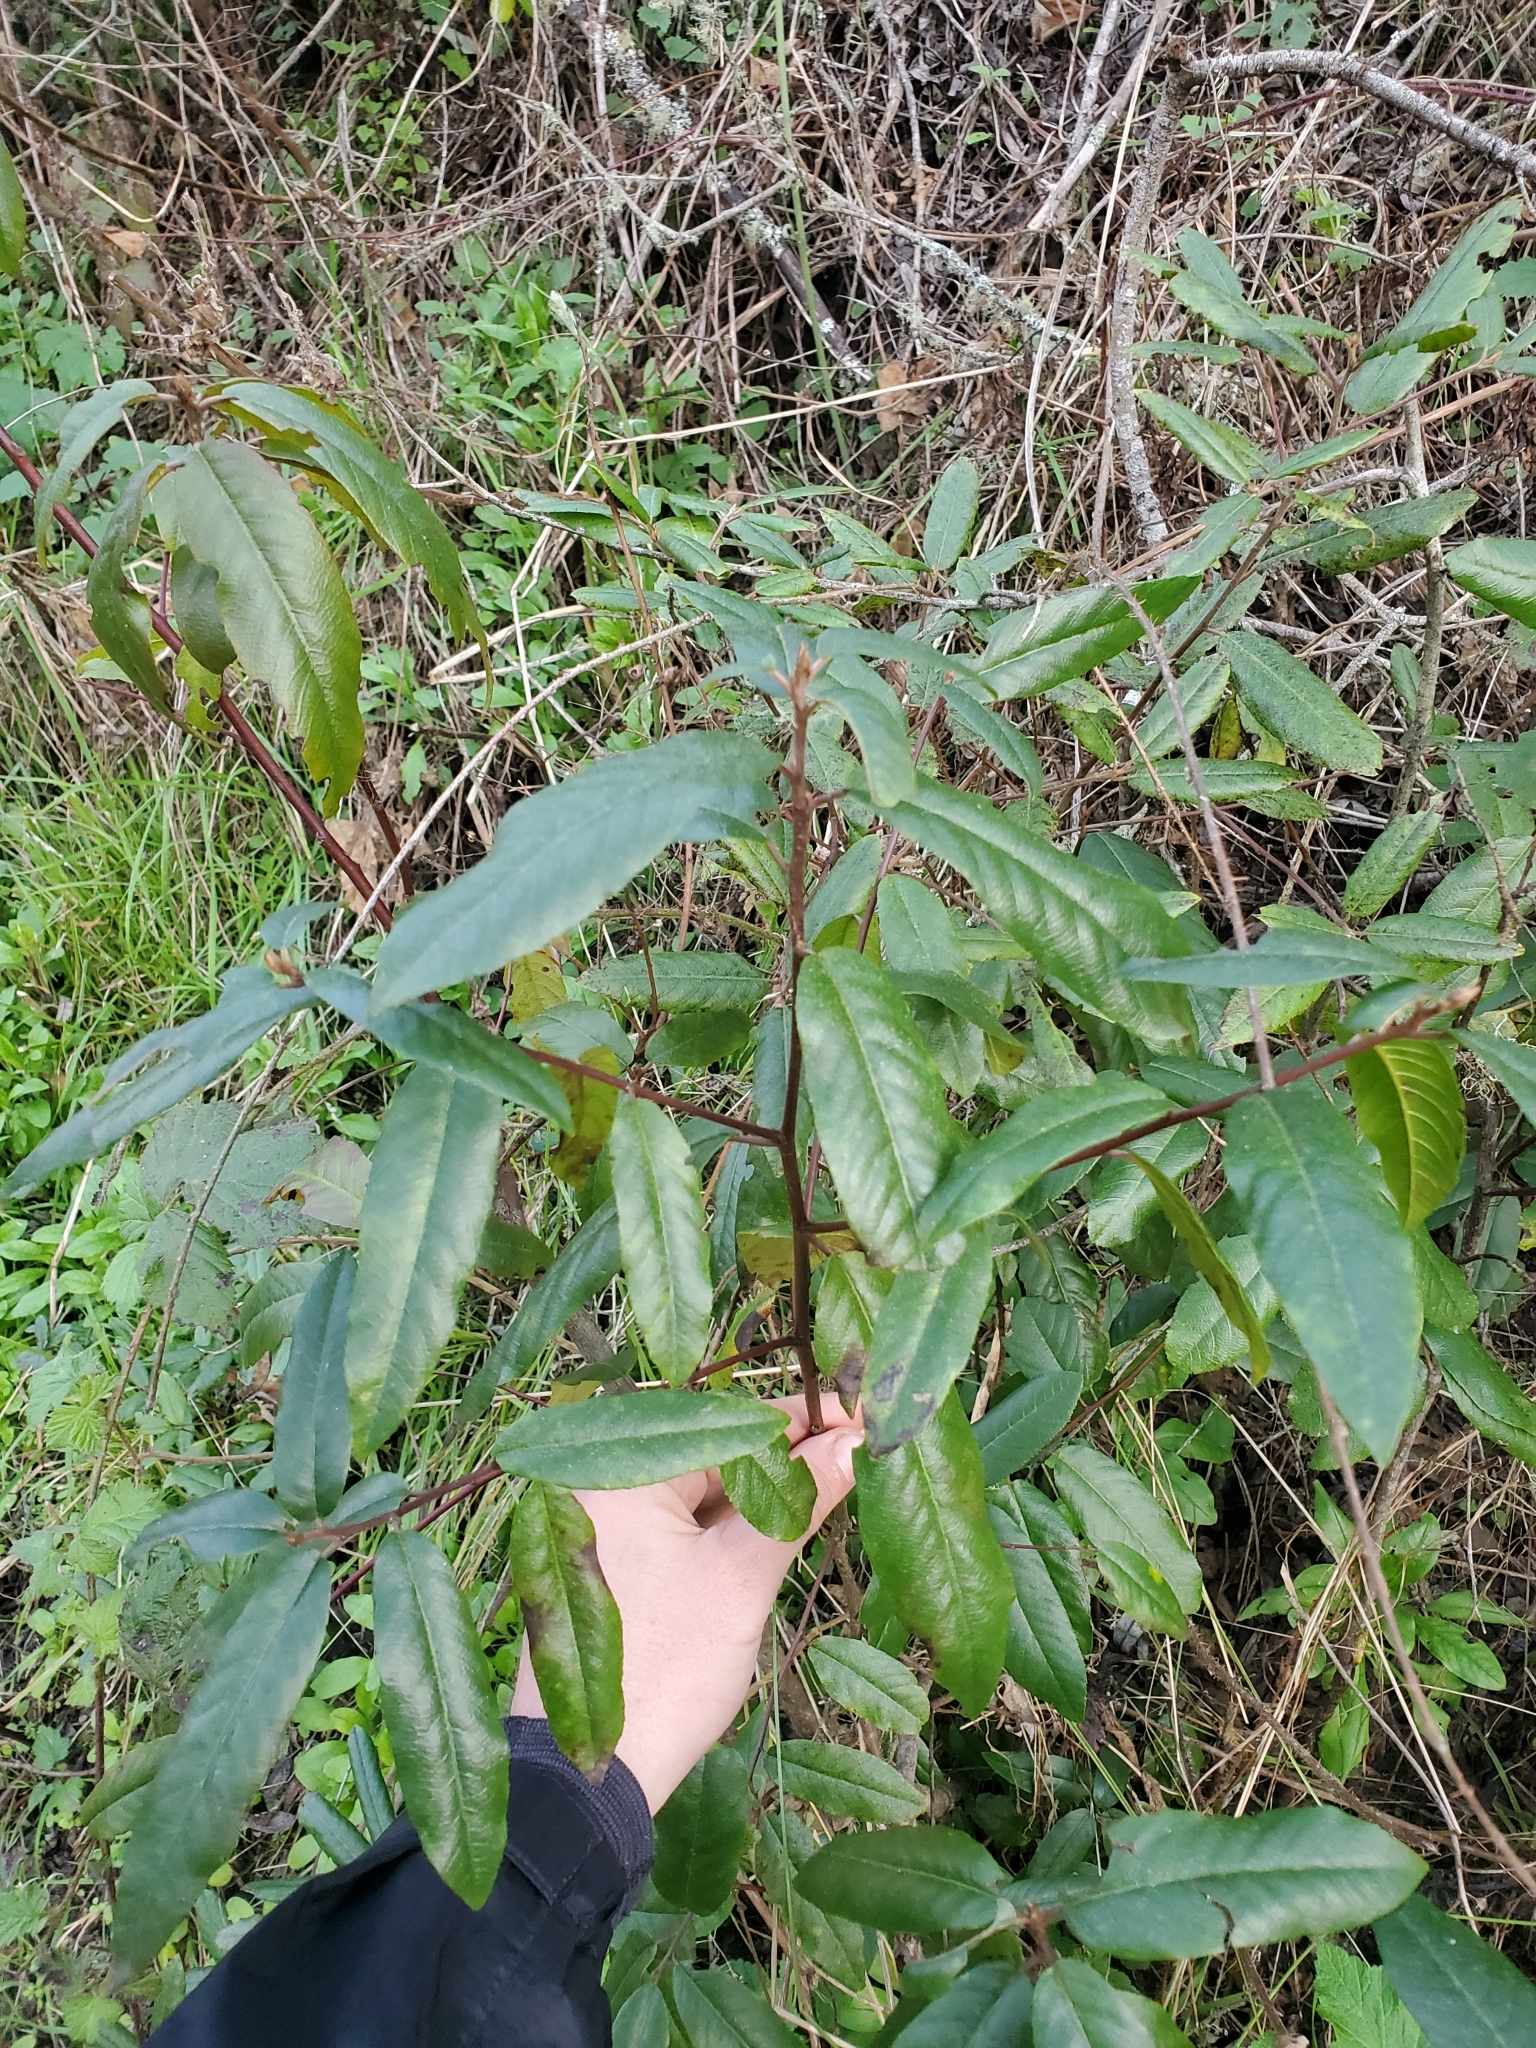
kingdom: Plantae
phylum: Tracheophyta
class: Magnoliopsida
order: Rosales
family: Rhamnaceae
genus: Frangula
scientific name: Frangula californica
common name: California buckthorn
